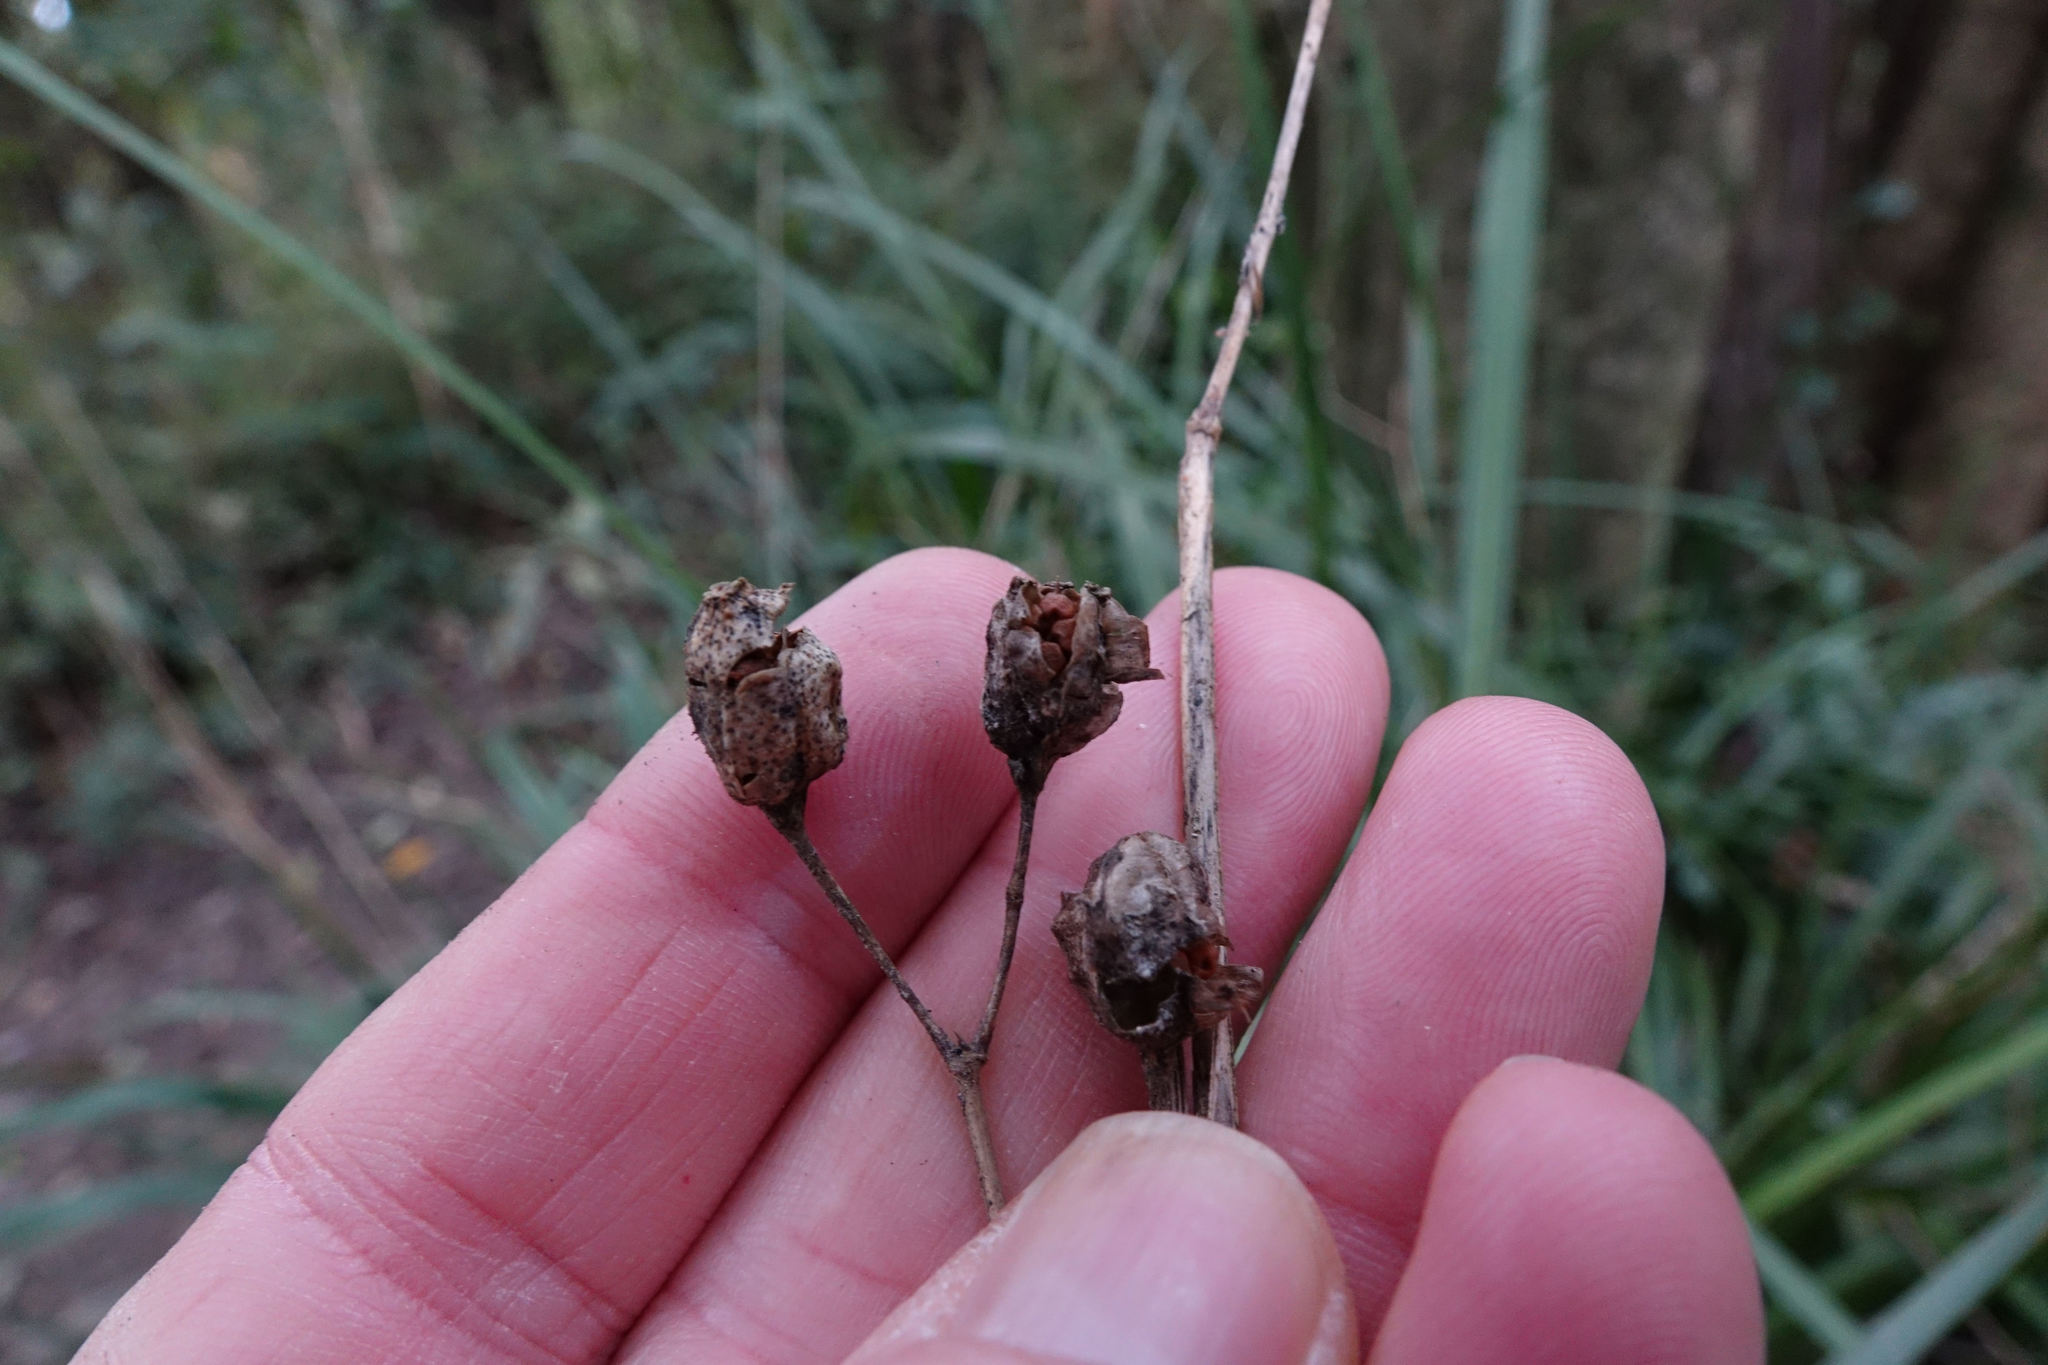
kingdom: Plantae
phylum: Tracheophyta
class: Liliopsida
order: Asparagales
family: Iridaceae
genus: Libertia
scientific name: Libertia ixioides
